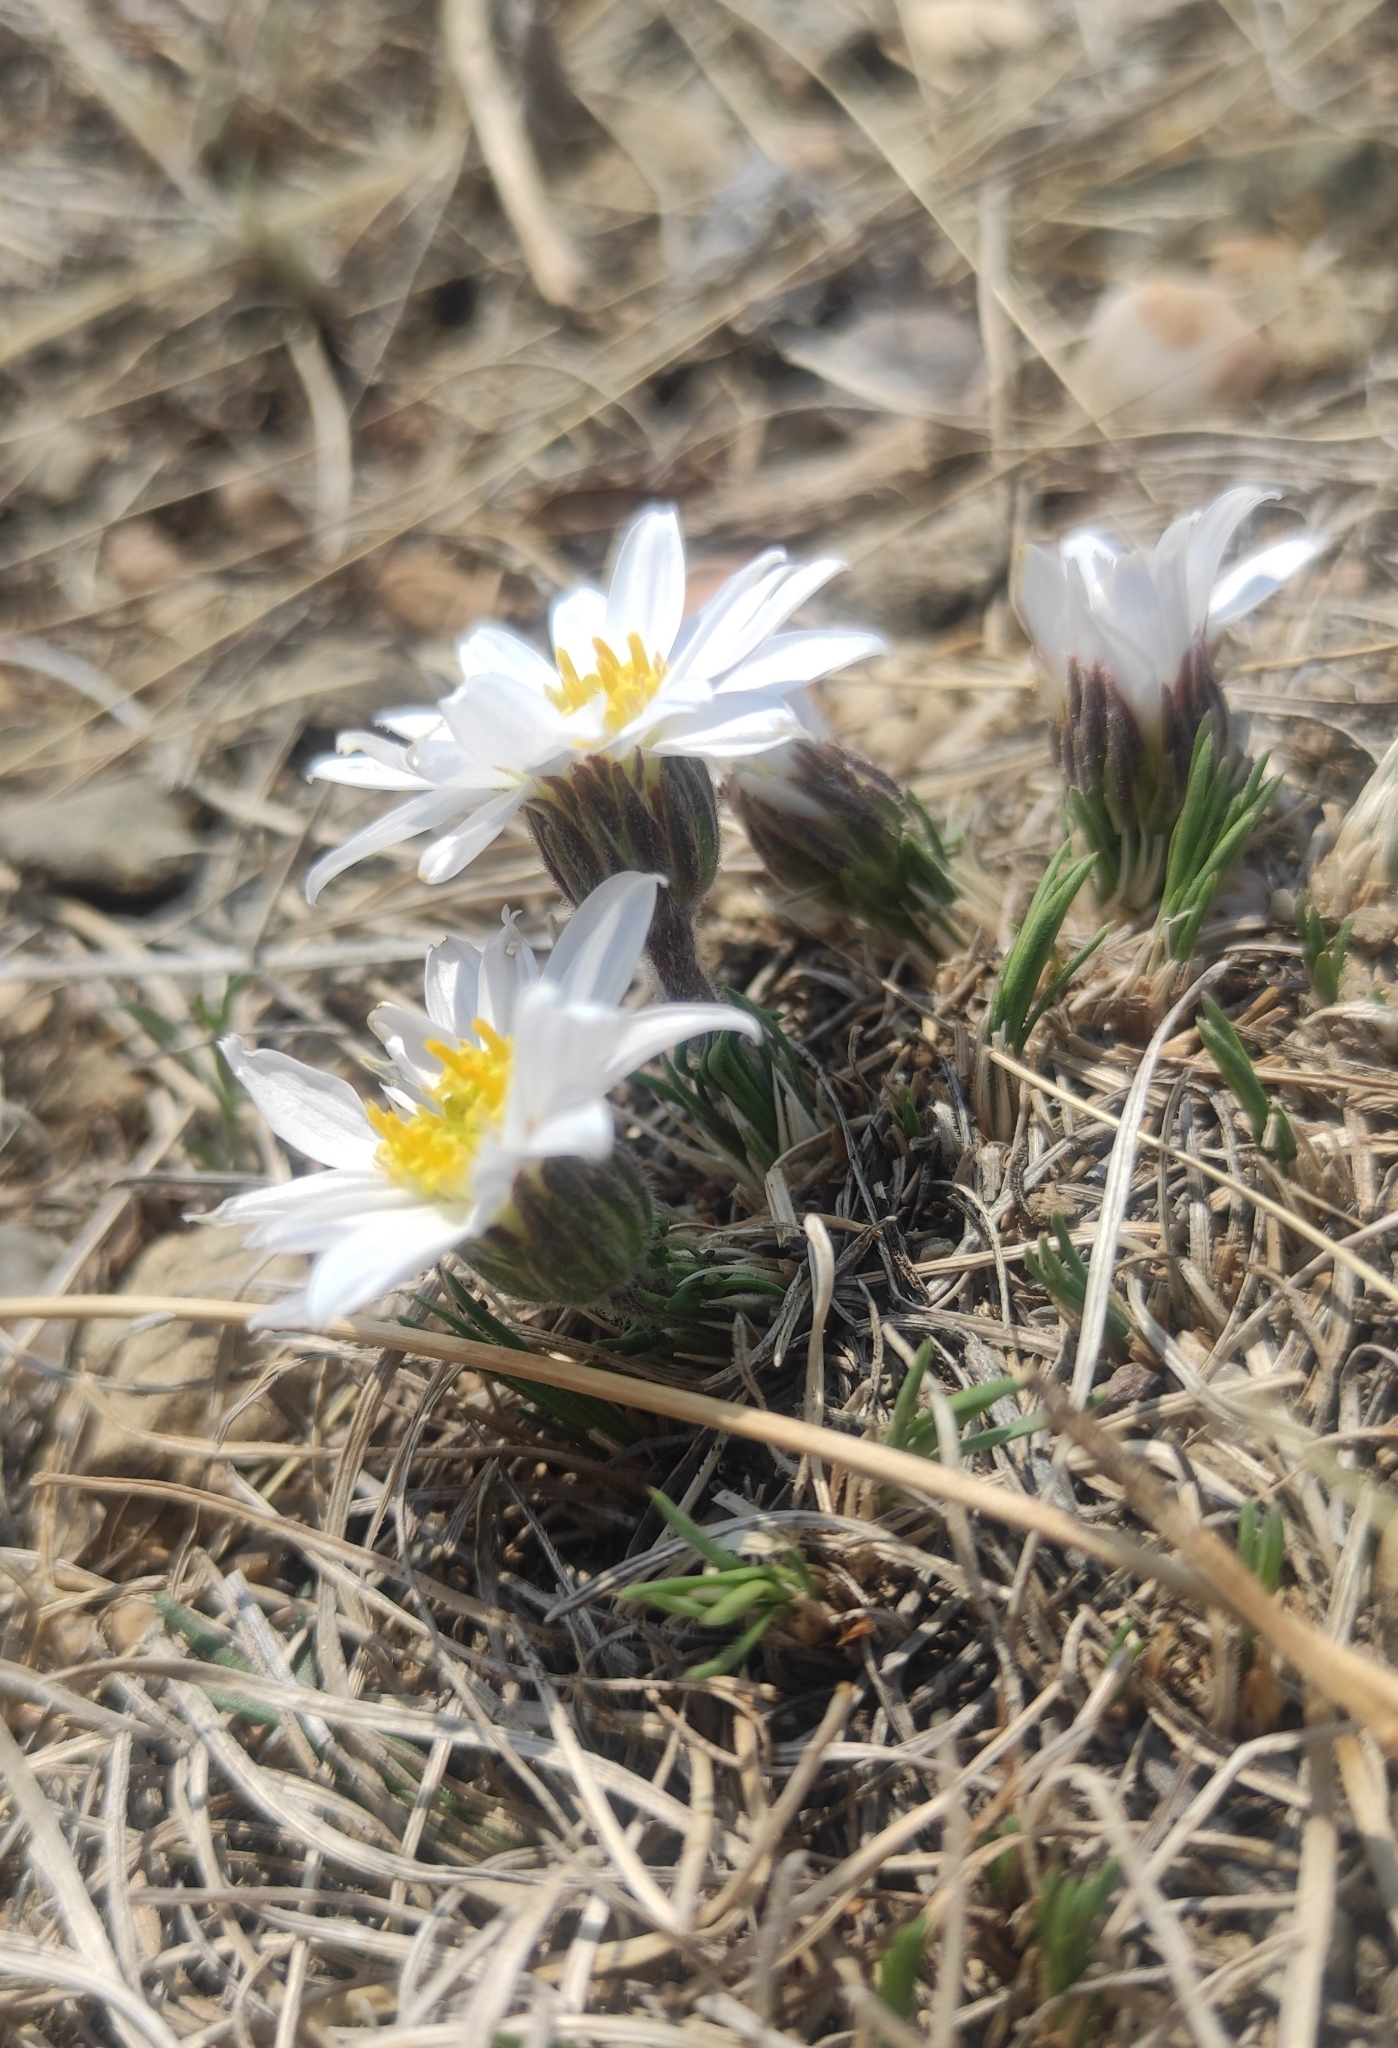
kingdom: Plantae
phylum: Tracheophyta
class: Magnoliopsida
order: Asterales
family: Asteraceae
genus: Arctogeron
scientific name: Arctogeron gramineum
